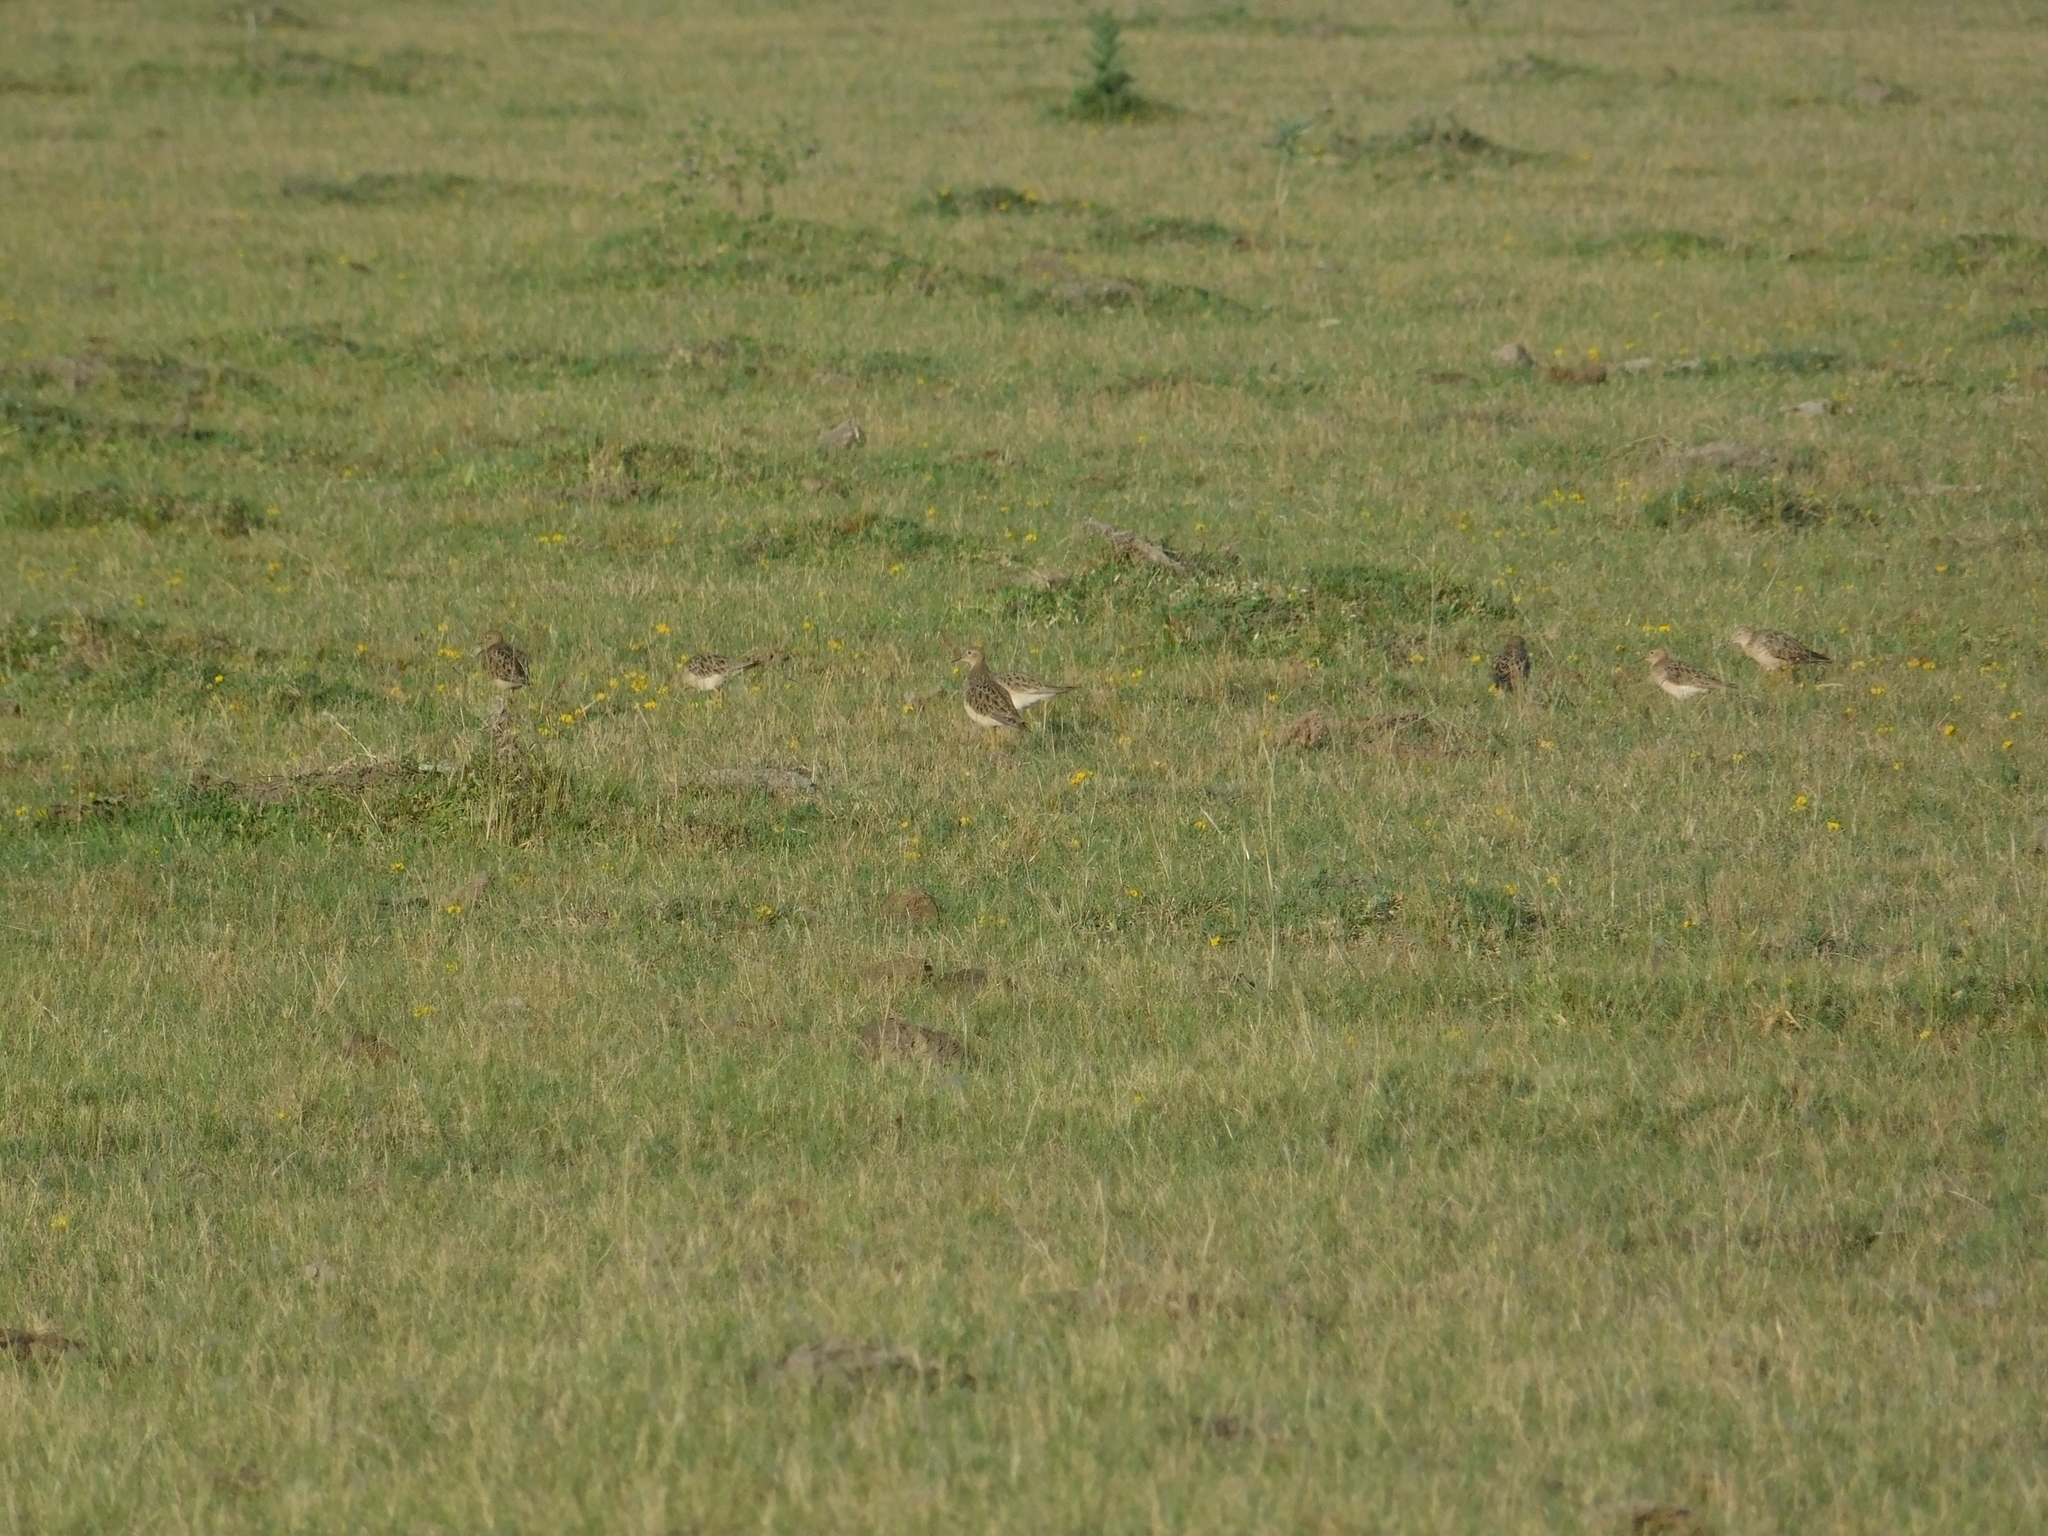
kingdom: Animalia
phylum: Chordata
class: Aves
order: Charadriiformes
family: Scolopacidae
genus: Calidris
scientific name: Calidris subruficollis
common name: Buff-breasted sandpiper
